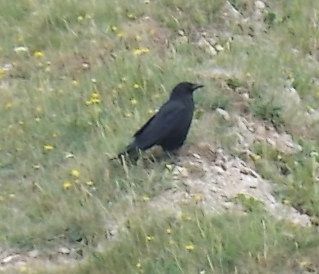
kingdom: Animalia
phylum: Chordata
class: Aves
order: Passeriformes
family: Corvidae
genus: Corvus
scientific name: Corvus corone
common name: Carrion crow
